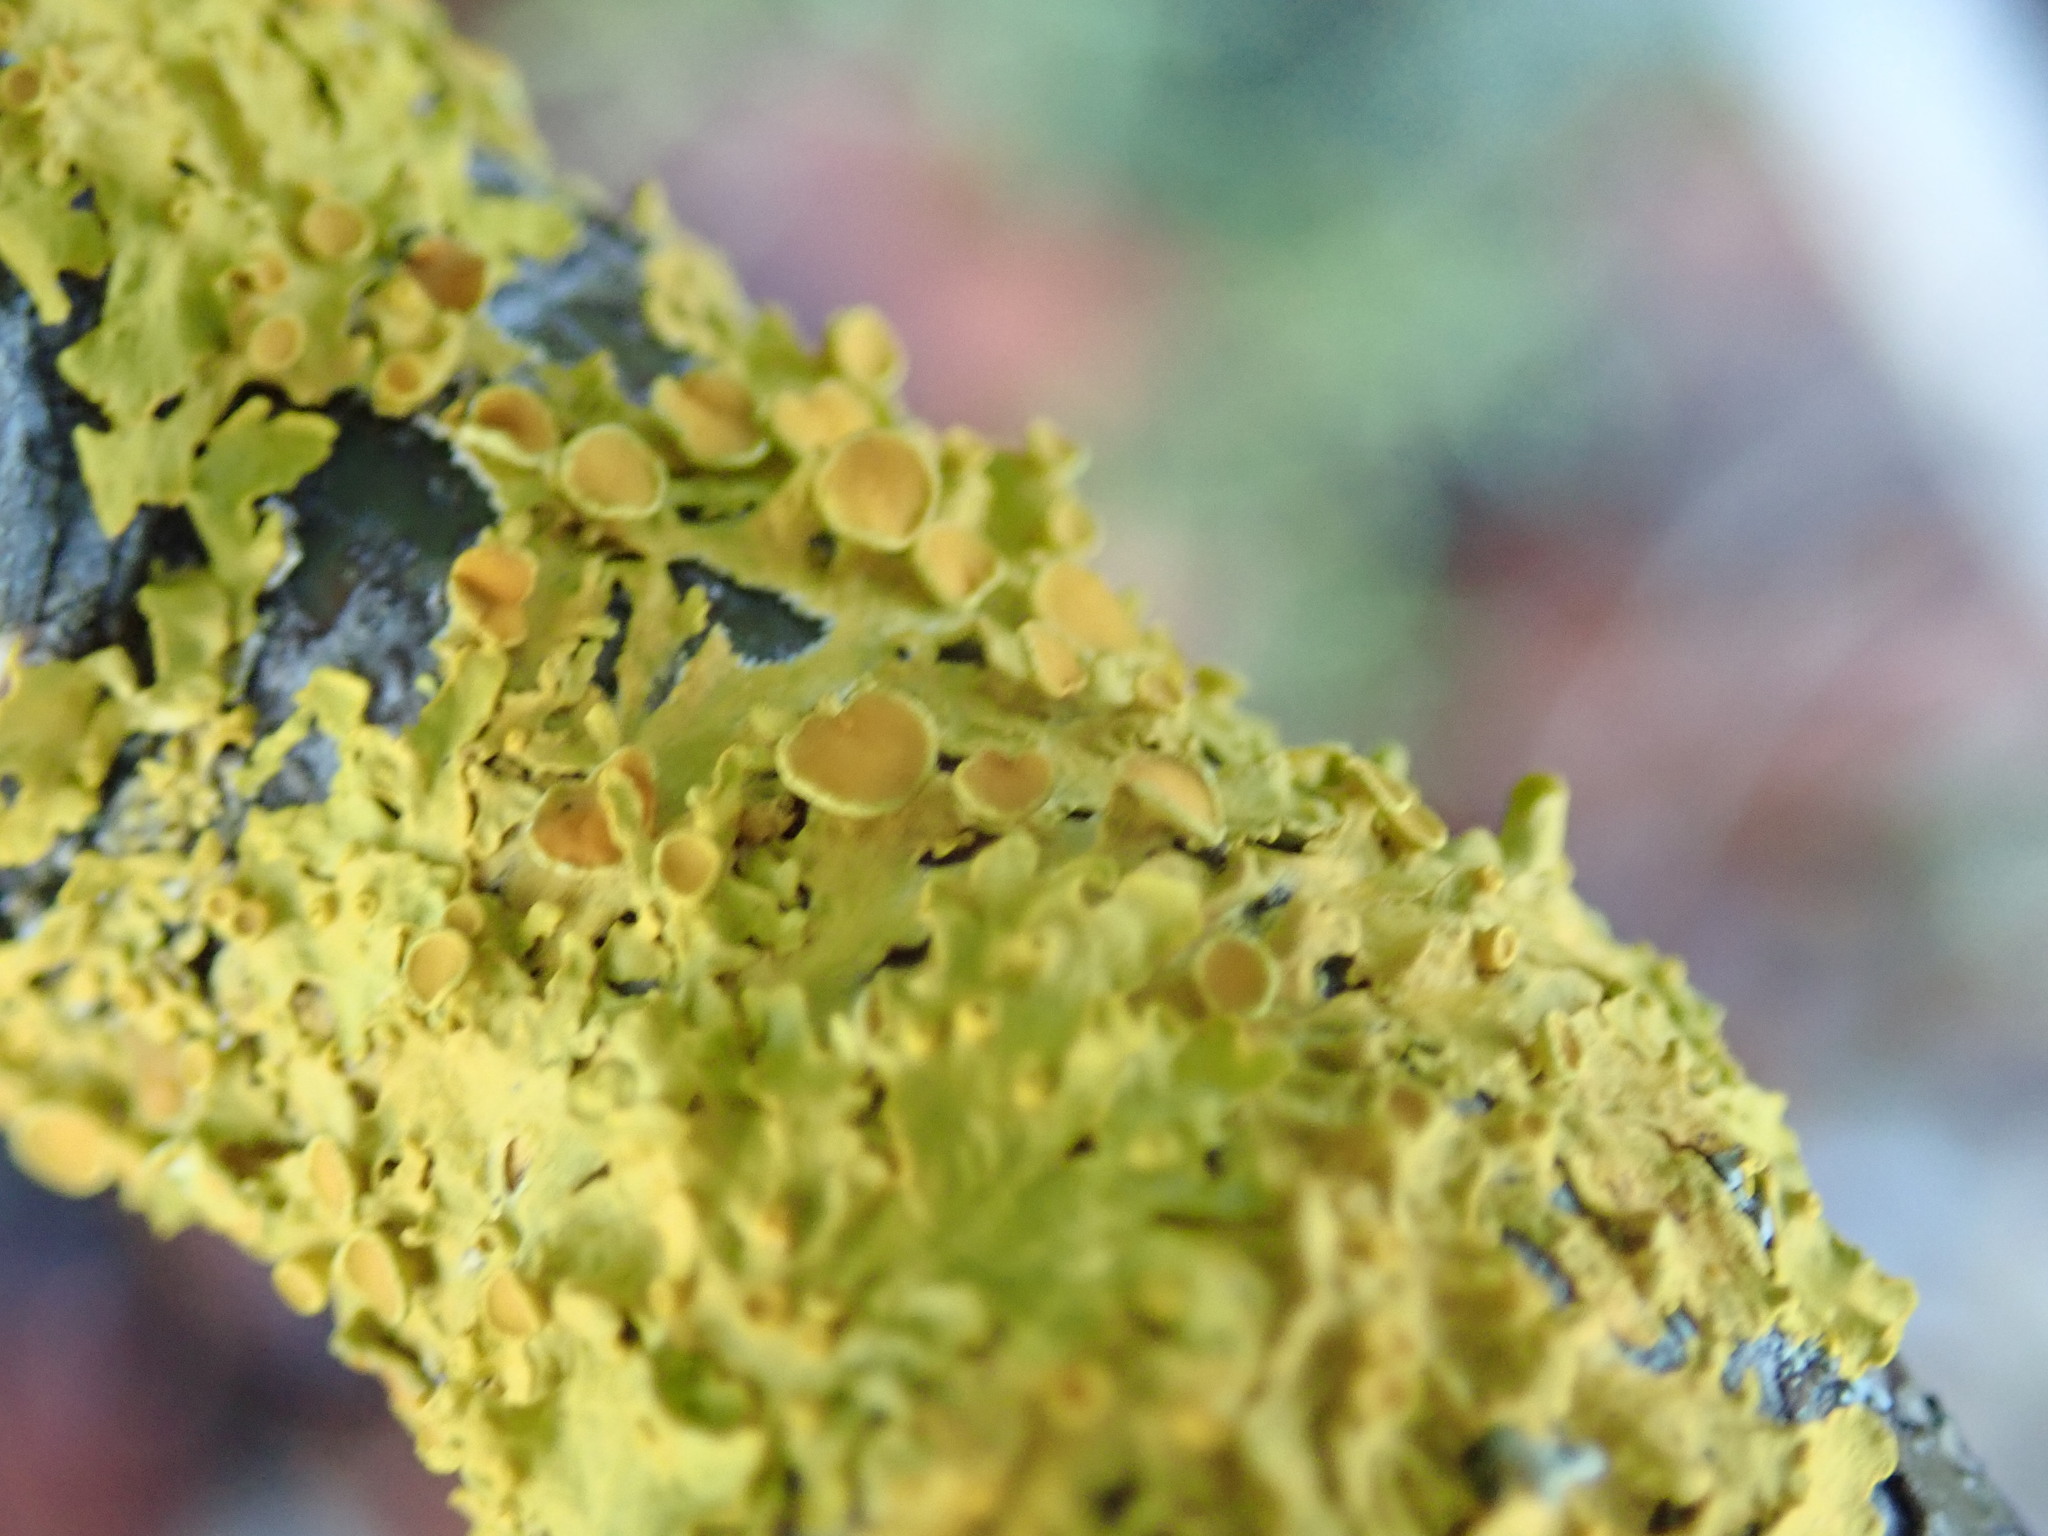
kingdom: Fungi
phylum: Ascomycota
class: Lecanoromycetes
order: Teloschistales
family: Teloschistaceae
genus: Xanthoria
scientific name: Xanthoria parietina
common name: Common orange lichen
